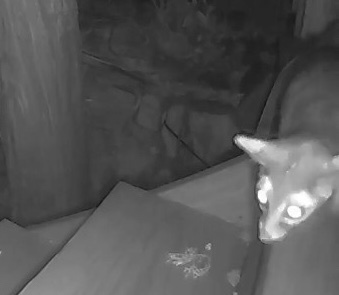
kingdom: Animalia
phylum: Chordata
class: Mammalia
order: Carnivora
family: Procyonidae
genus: Bassariscus
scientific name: Bassariscus astutus
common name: Ringtail
